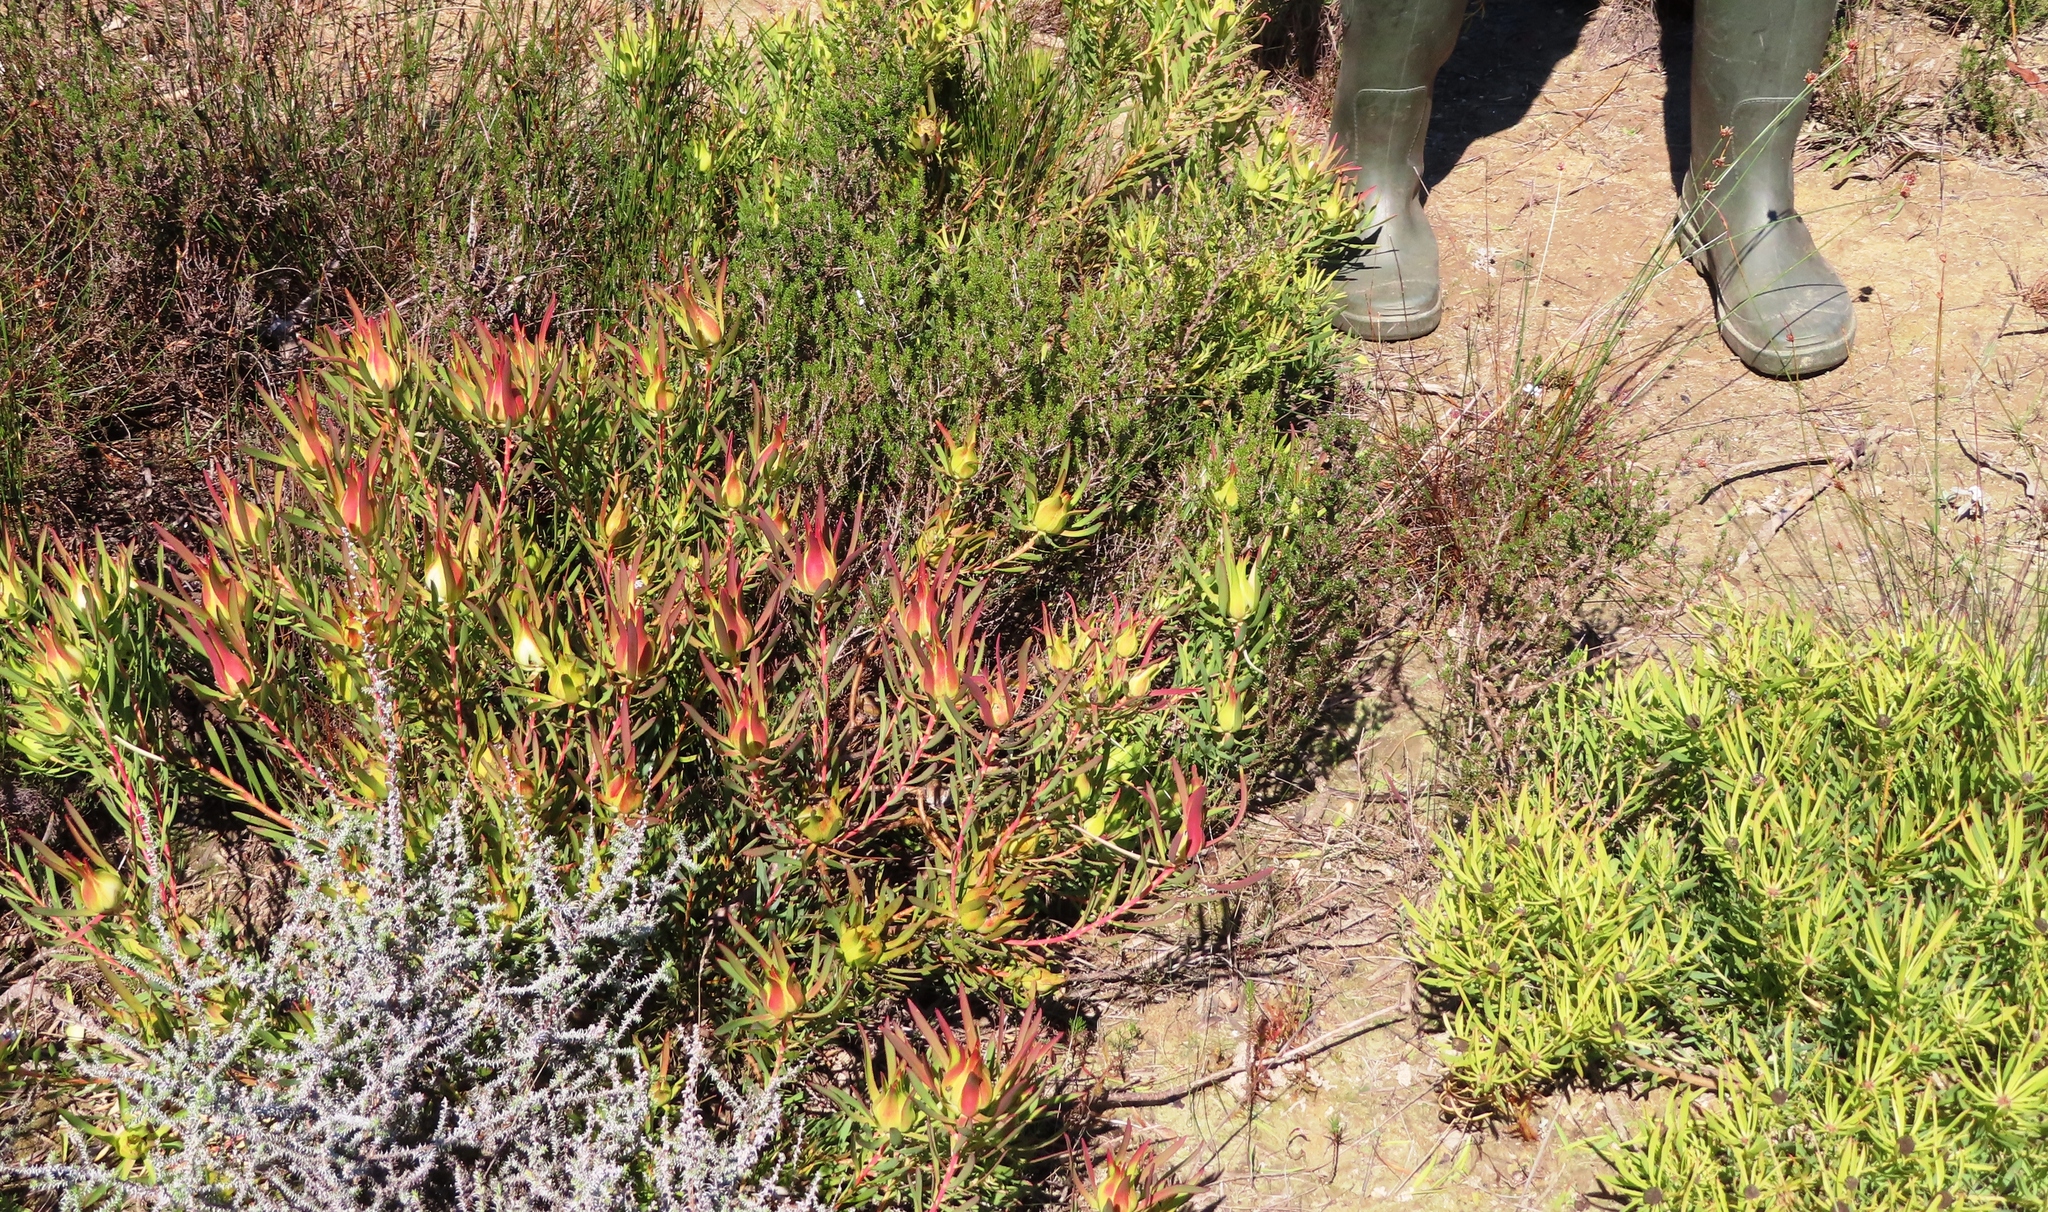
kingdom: Plantae
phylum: Tracheophyta
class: Magnoliopsida
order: Proteales
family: Proteaceae
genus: Leucadendron
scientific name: Leucadendron salignum
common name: Common sunshine conebush
